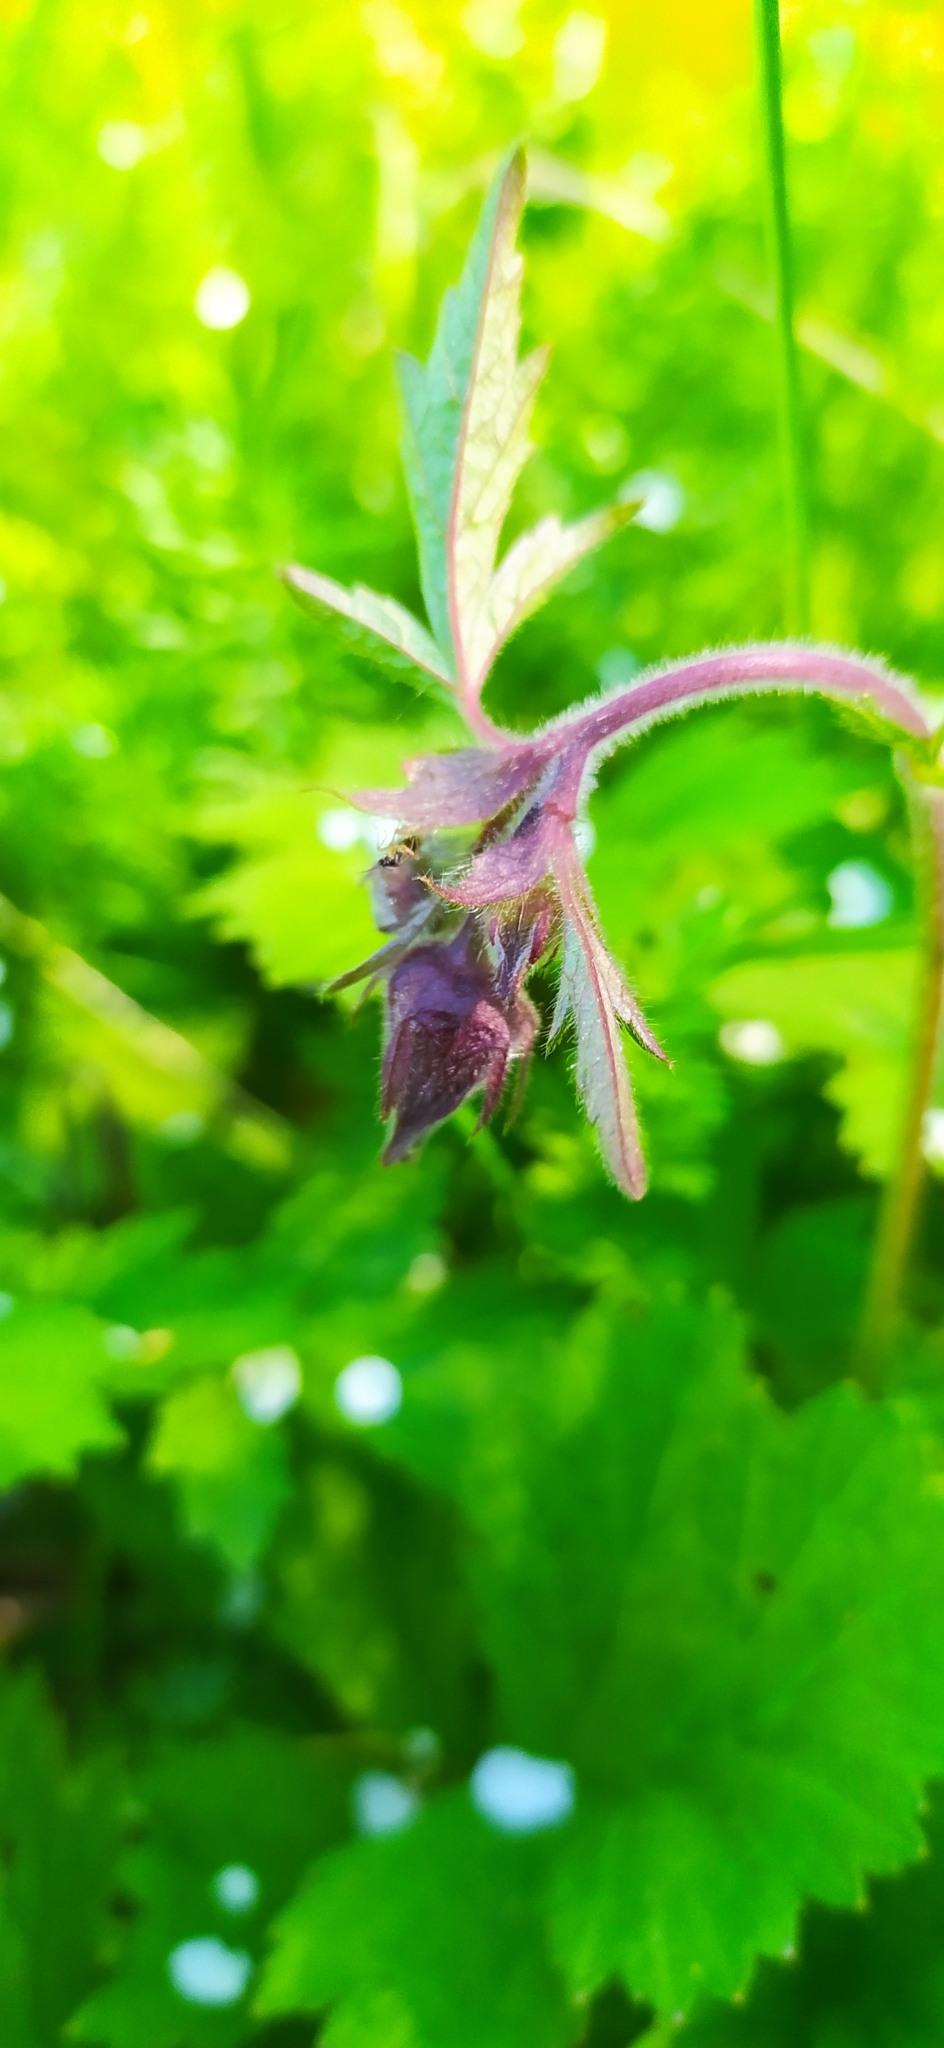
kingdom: Plantae
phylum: Tracheophyta
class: Magnoliopsida
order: Rosales
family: Rosaceae
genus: Geum
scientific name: Geum rivale
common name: Water avens
